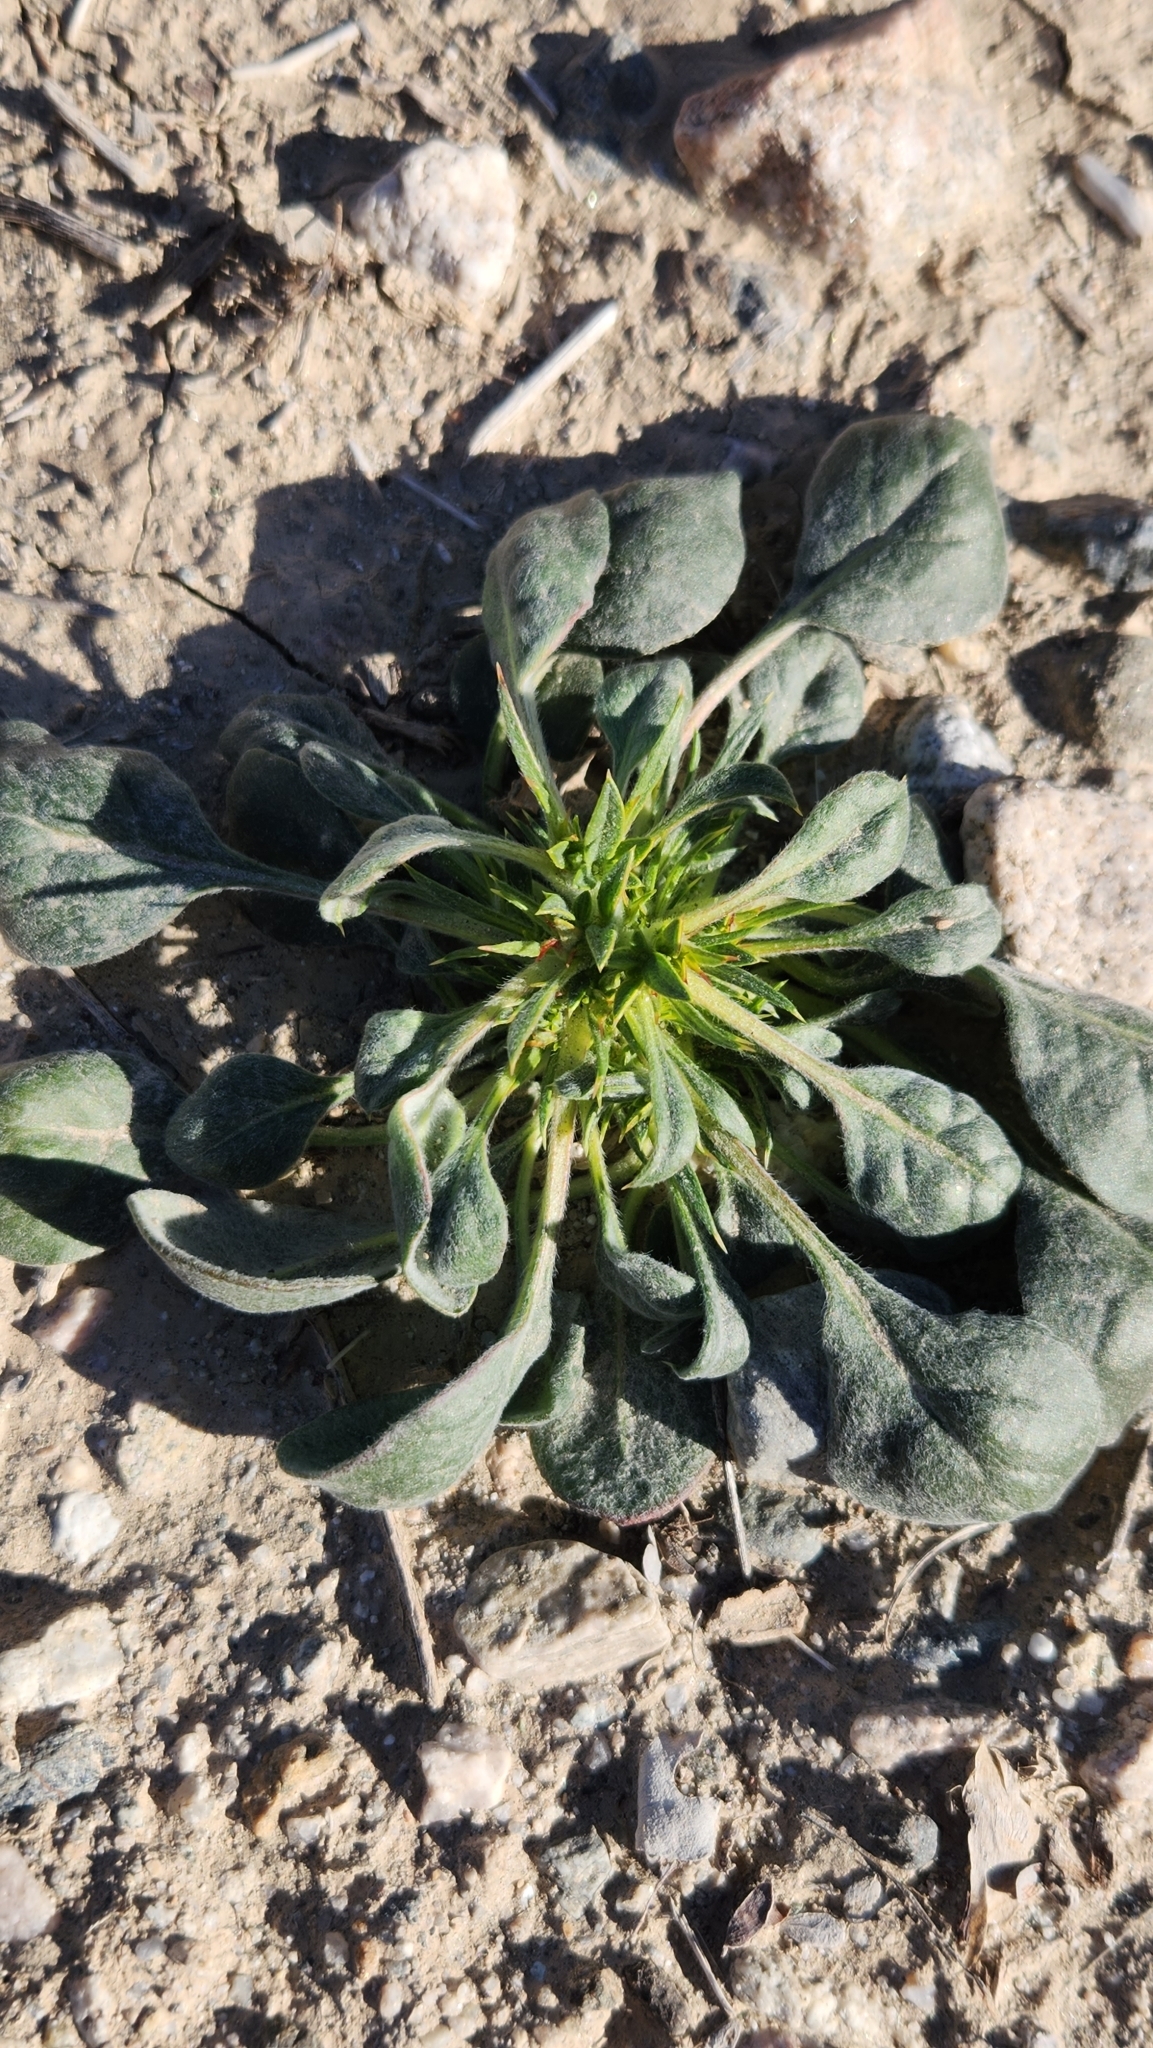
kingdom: Plantae
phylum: Tracheophyta
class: Magnoliopsida
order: Caryophyllales
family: Polygonaceae
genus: Chorizanthe
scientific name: Chorizanthe rigida
